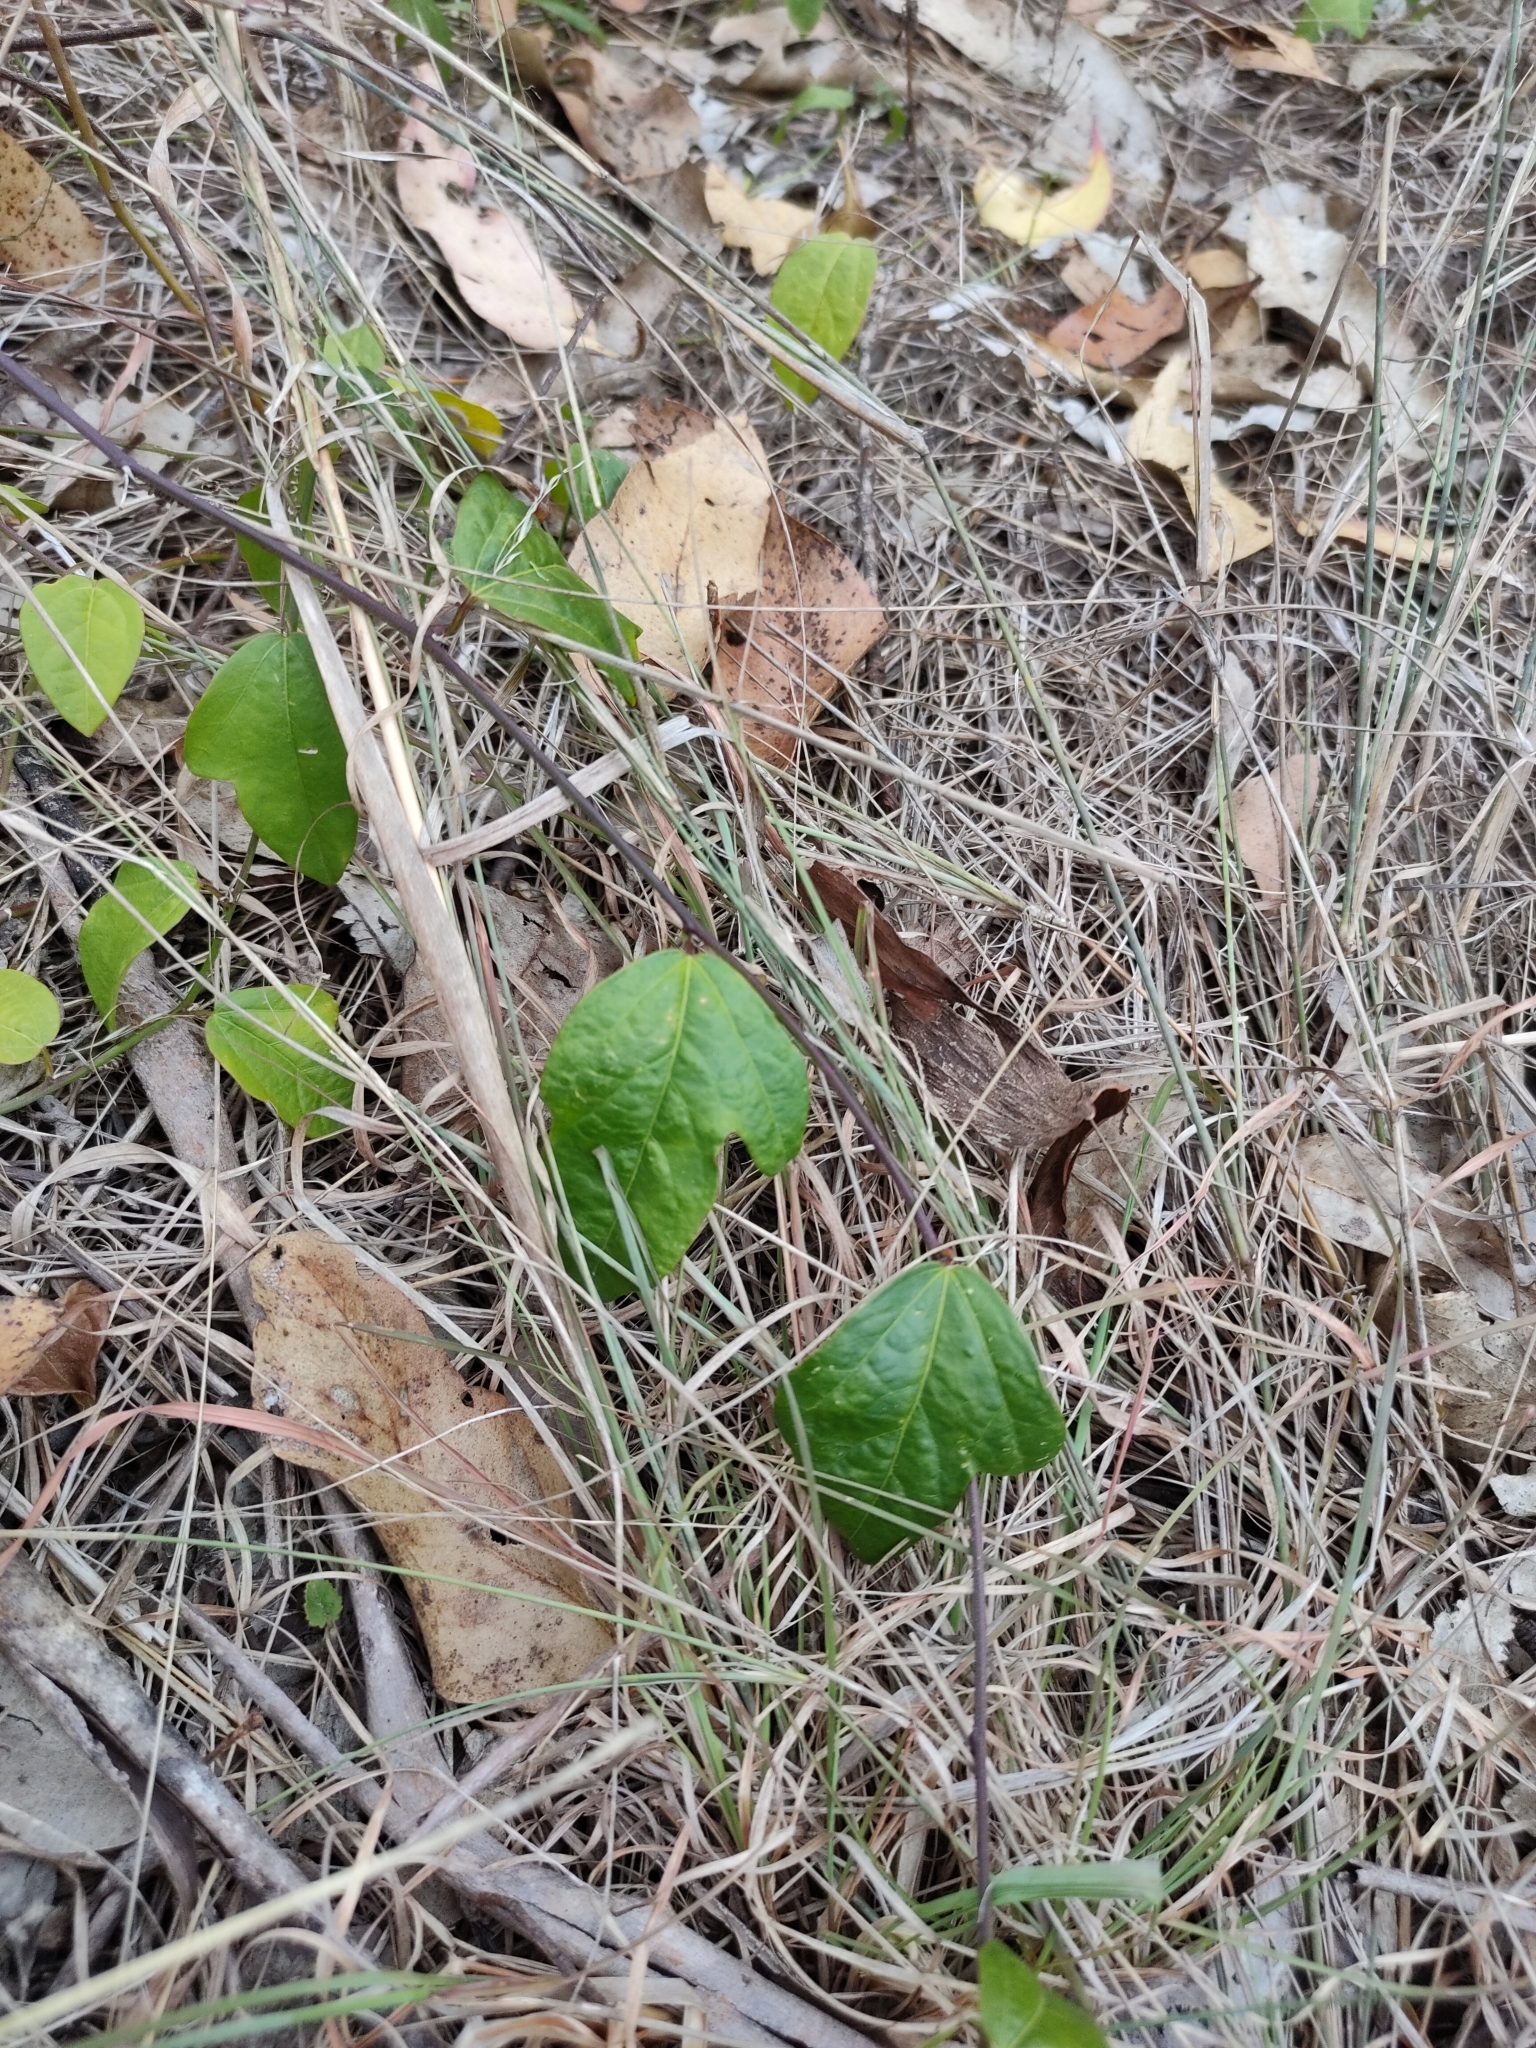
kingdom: Plantae
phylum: Tracheophyta
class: Magnoliopsida
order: Malpighiales
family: Passifloraceae
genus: Passiflora
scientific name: Passiflora pallida
